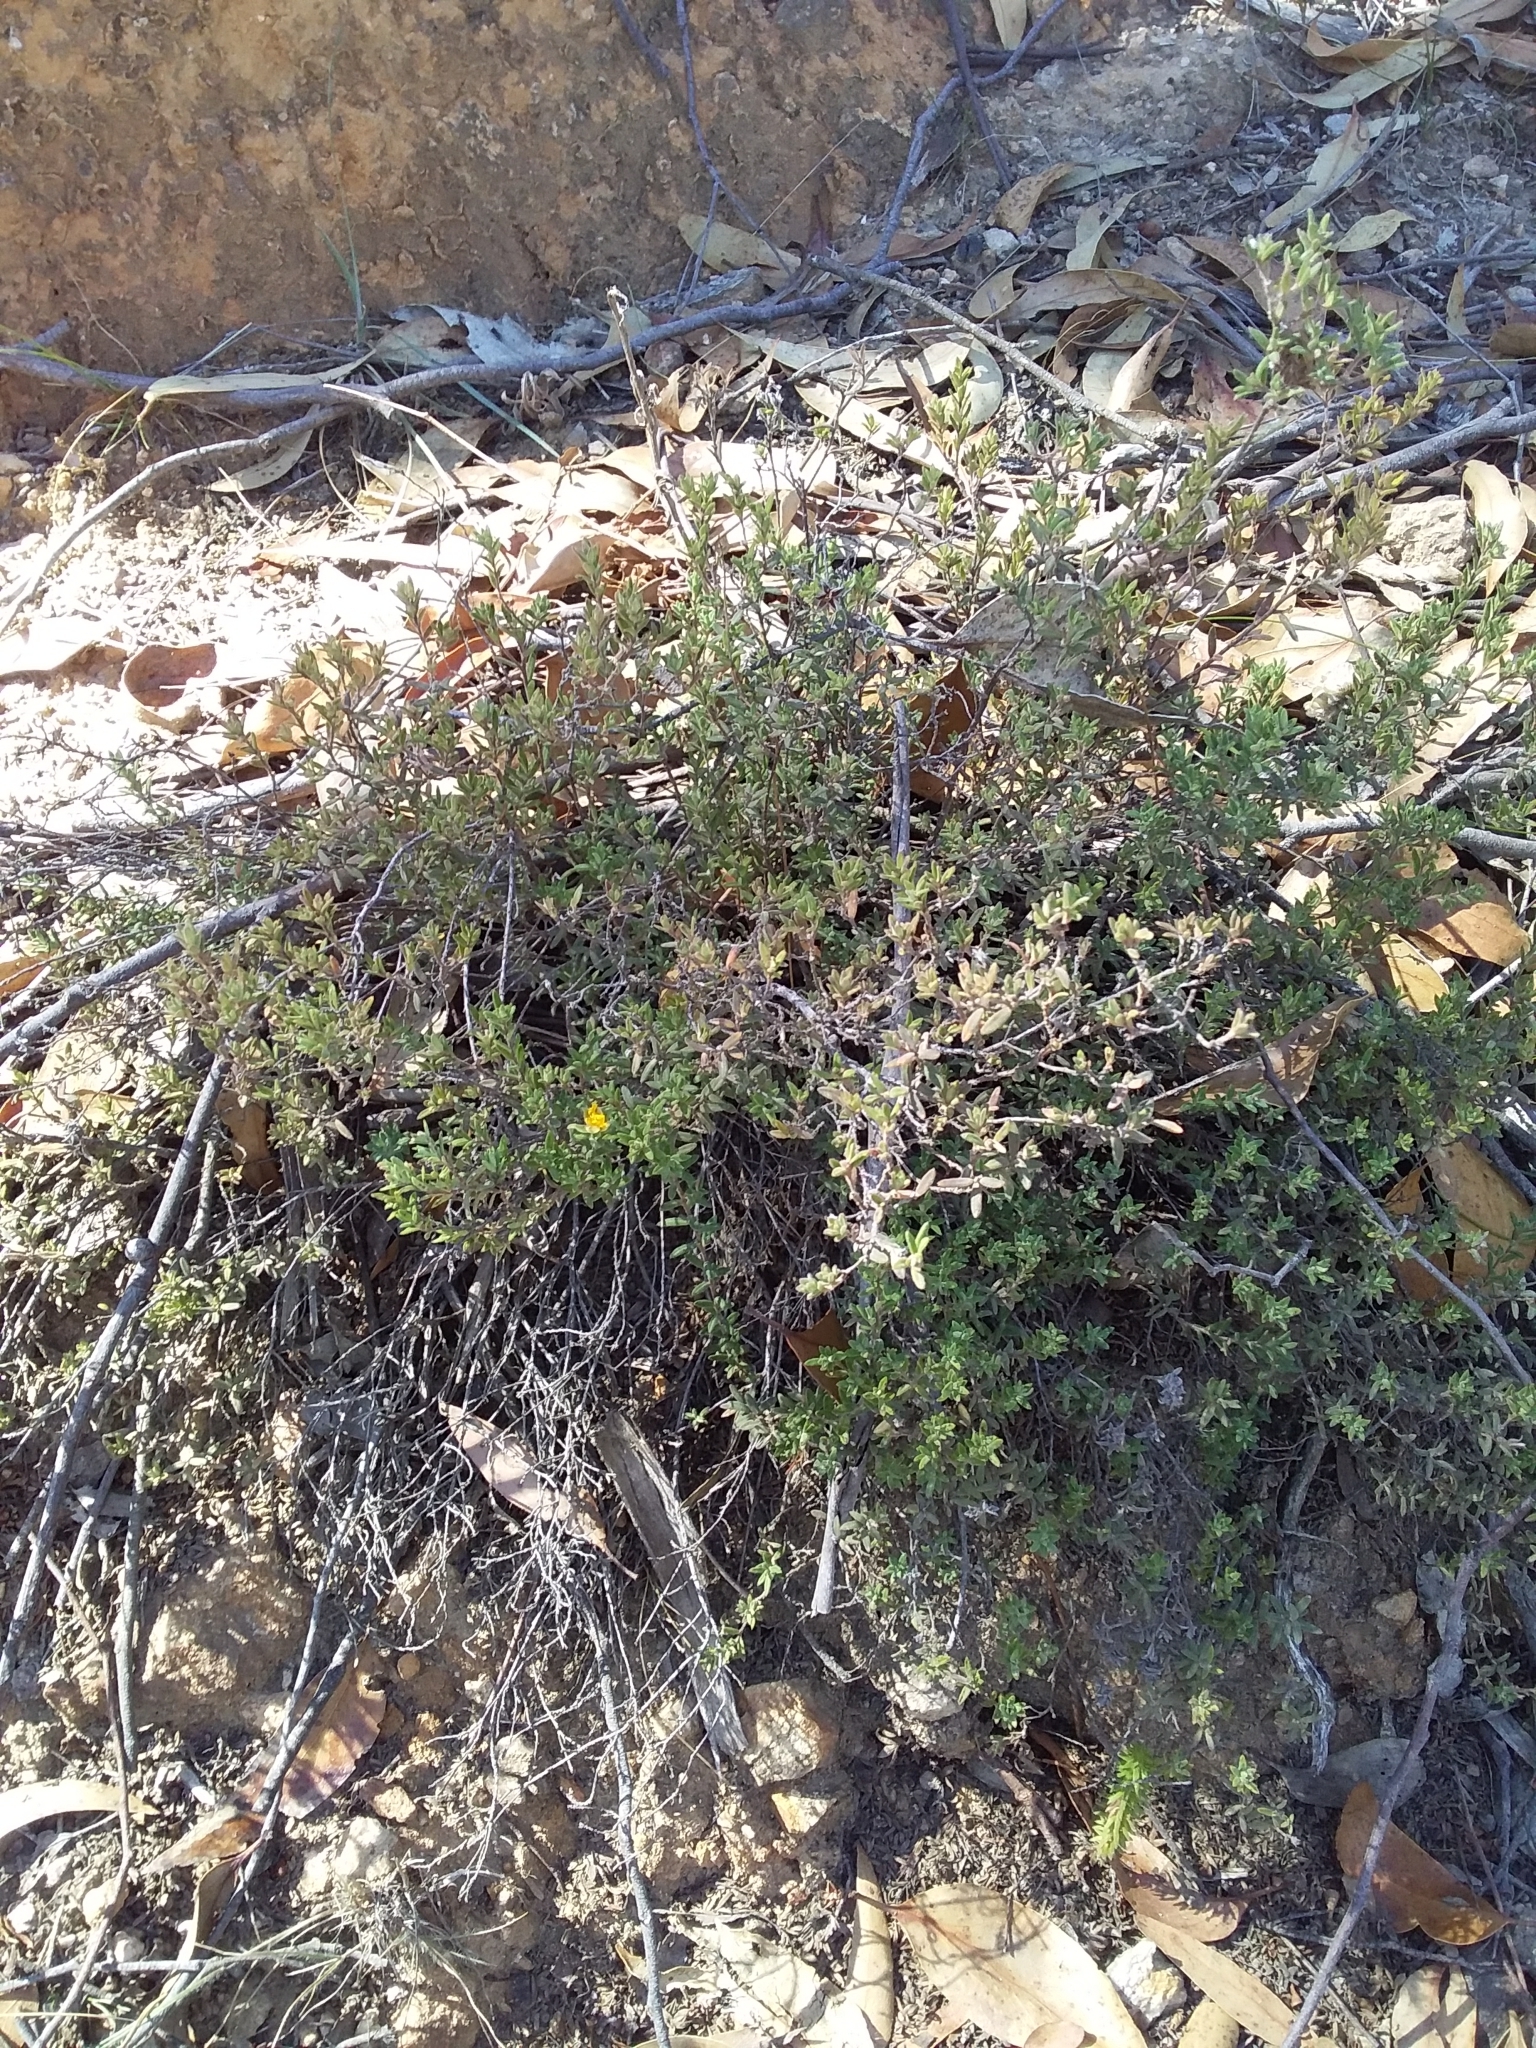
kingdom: Plantae
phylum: Tracheophyta
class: Magnoliopsida
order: Dilleniales
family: Dilleniaceae
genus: Hibbertia
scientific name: Hibbertia crinita
